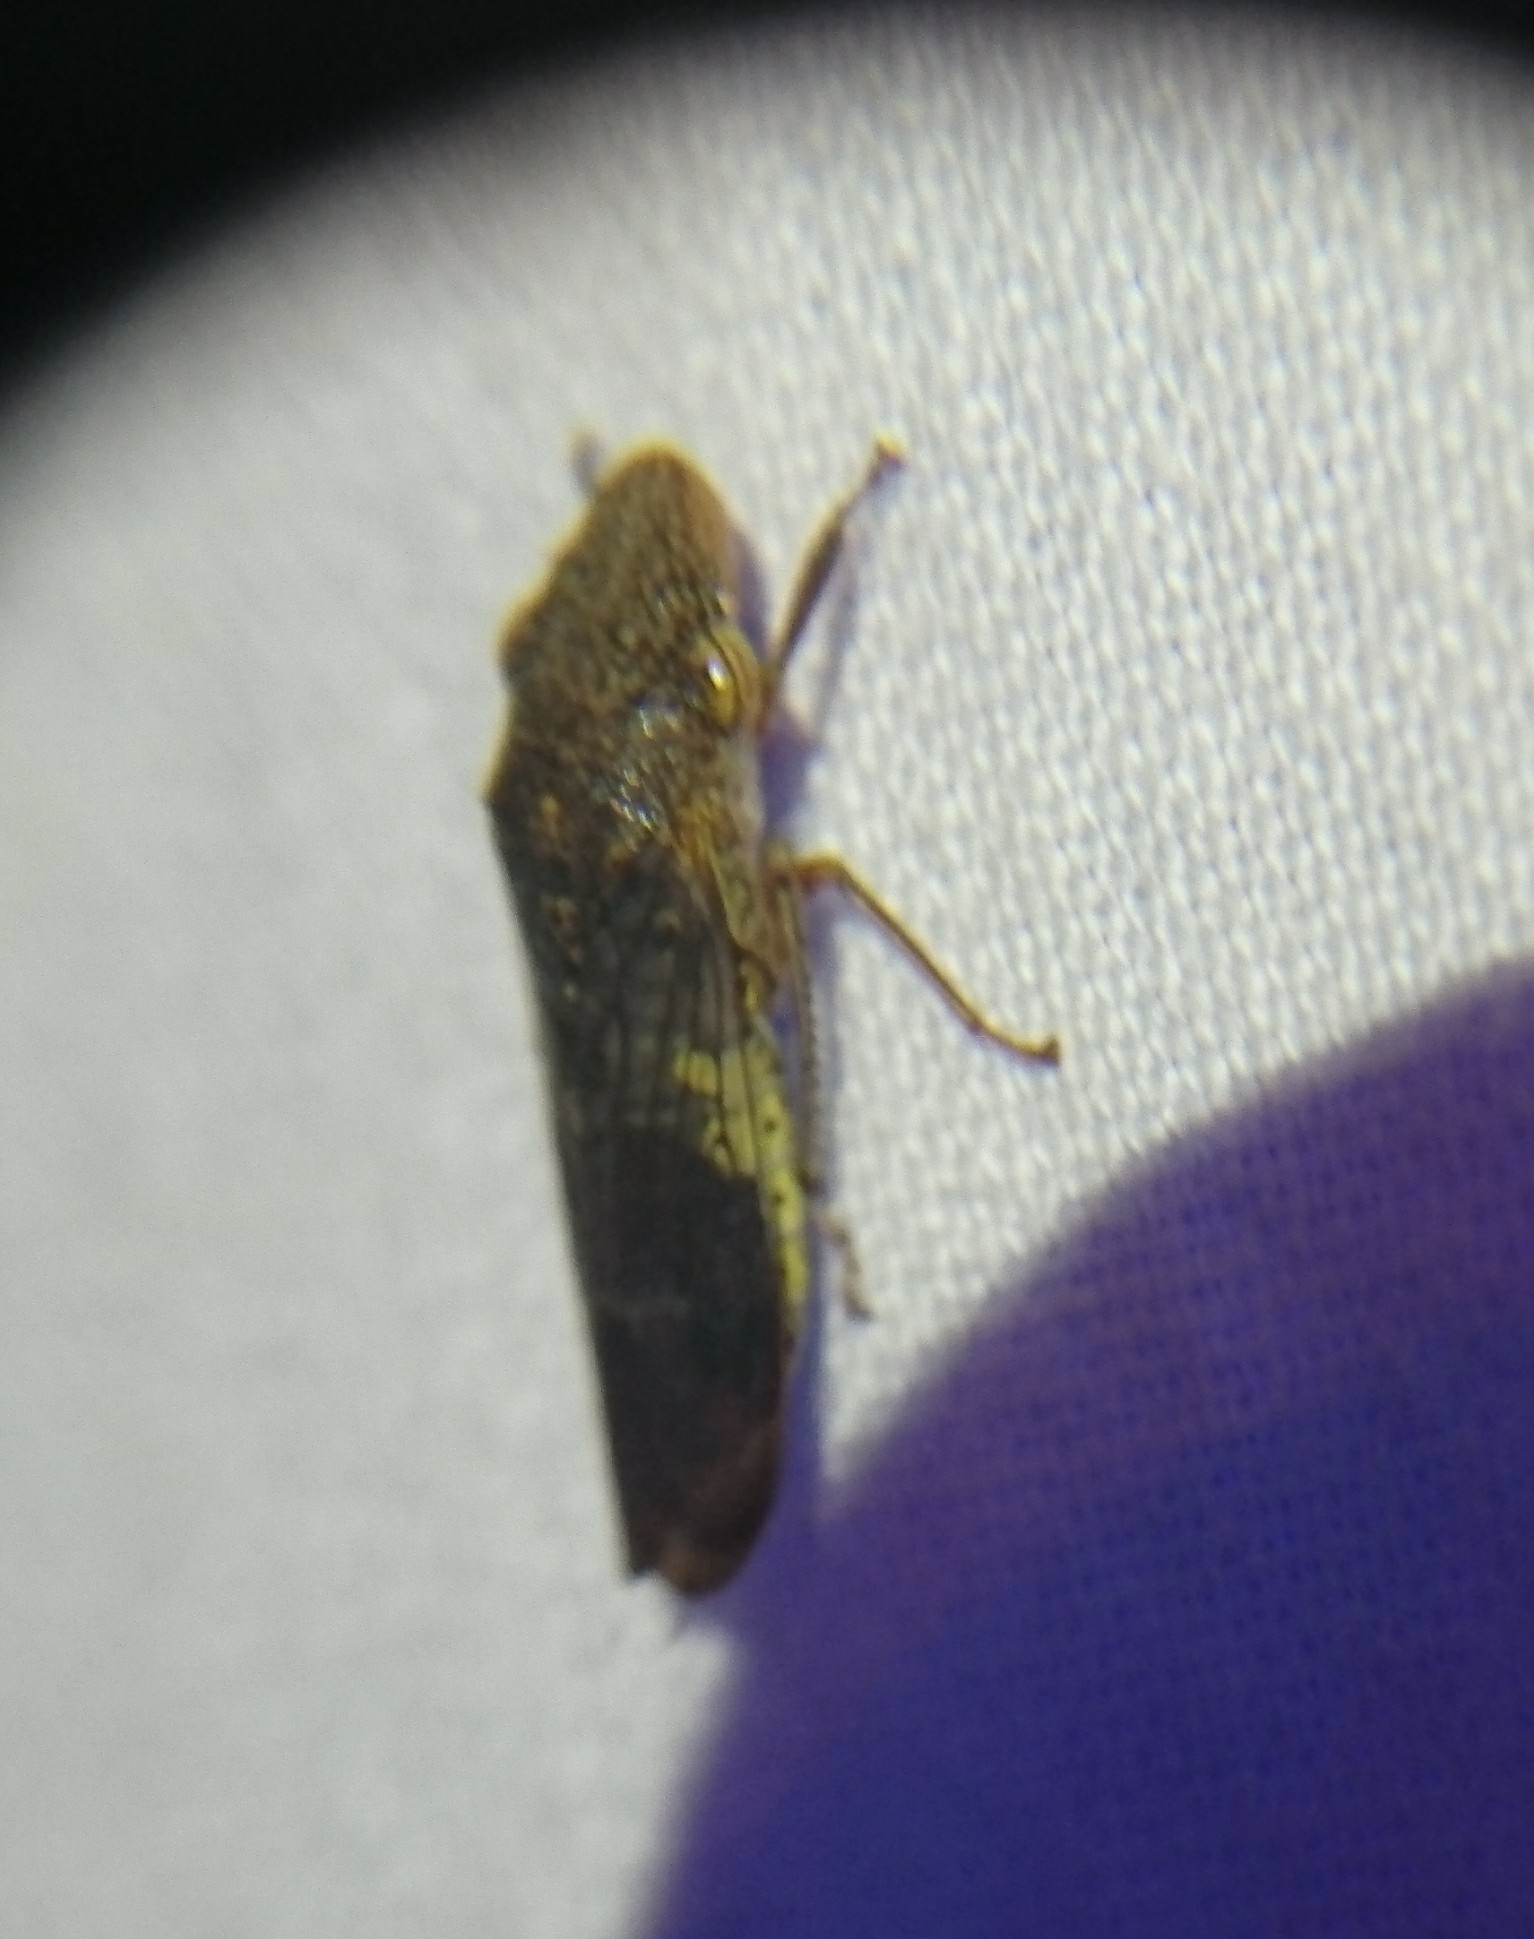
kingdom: Animalia
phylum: Arthropoda
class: Insecta
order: Hemiptera
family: Cicadellidae
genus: Homalodisca
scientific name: Homalodisca vitripennis
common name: Glassy-winged sharpshooter
